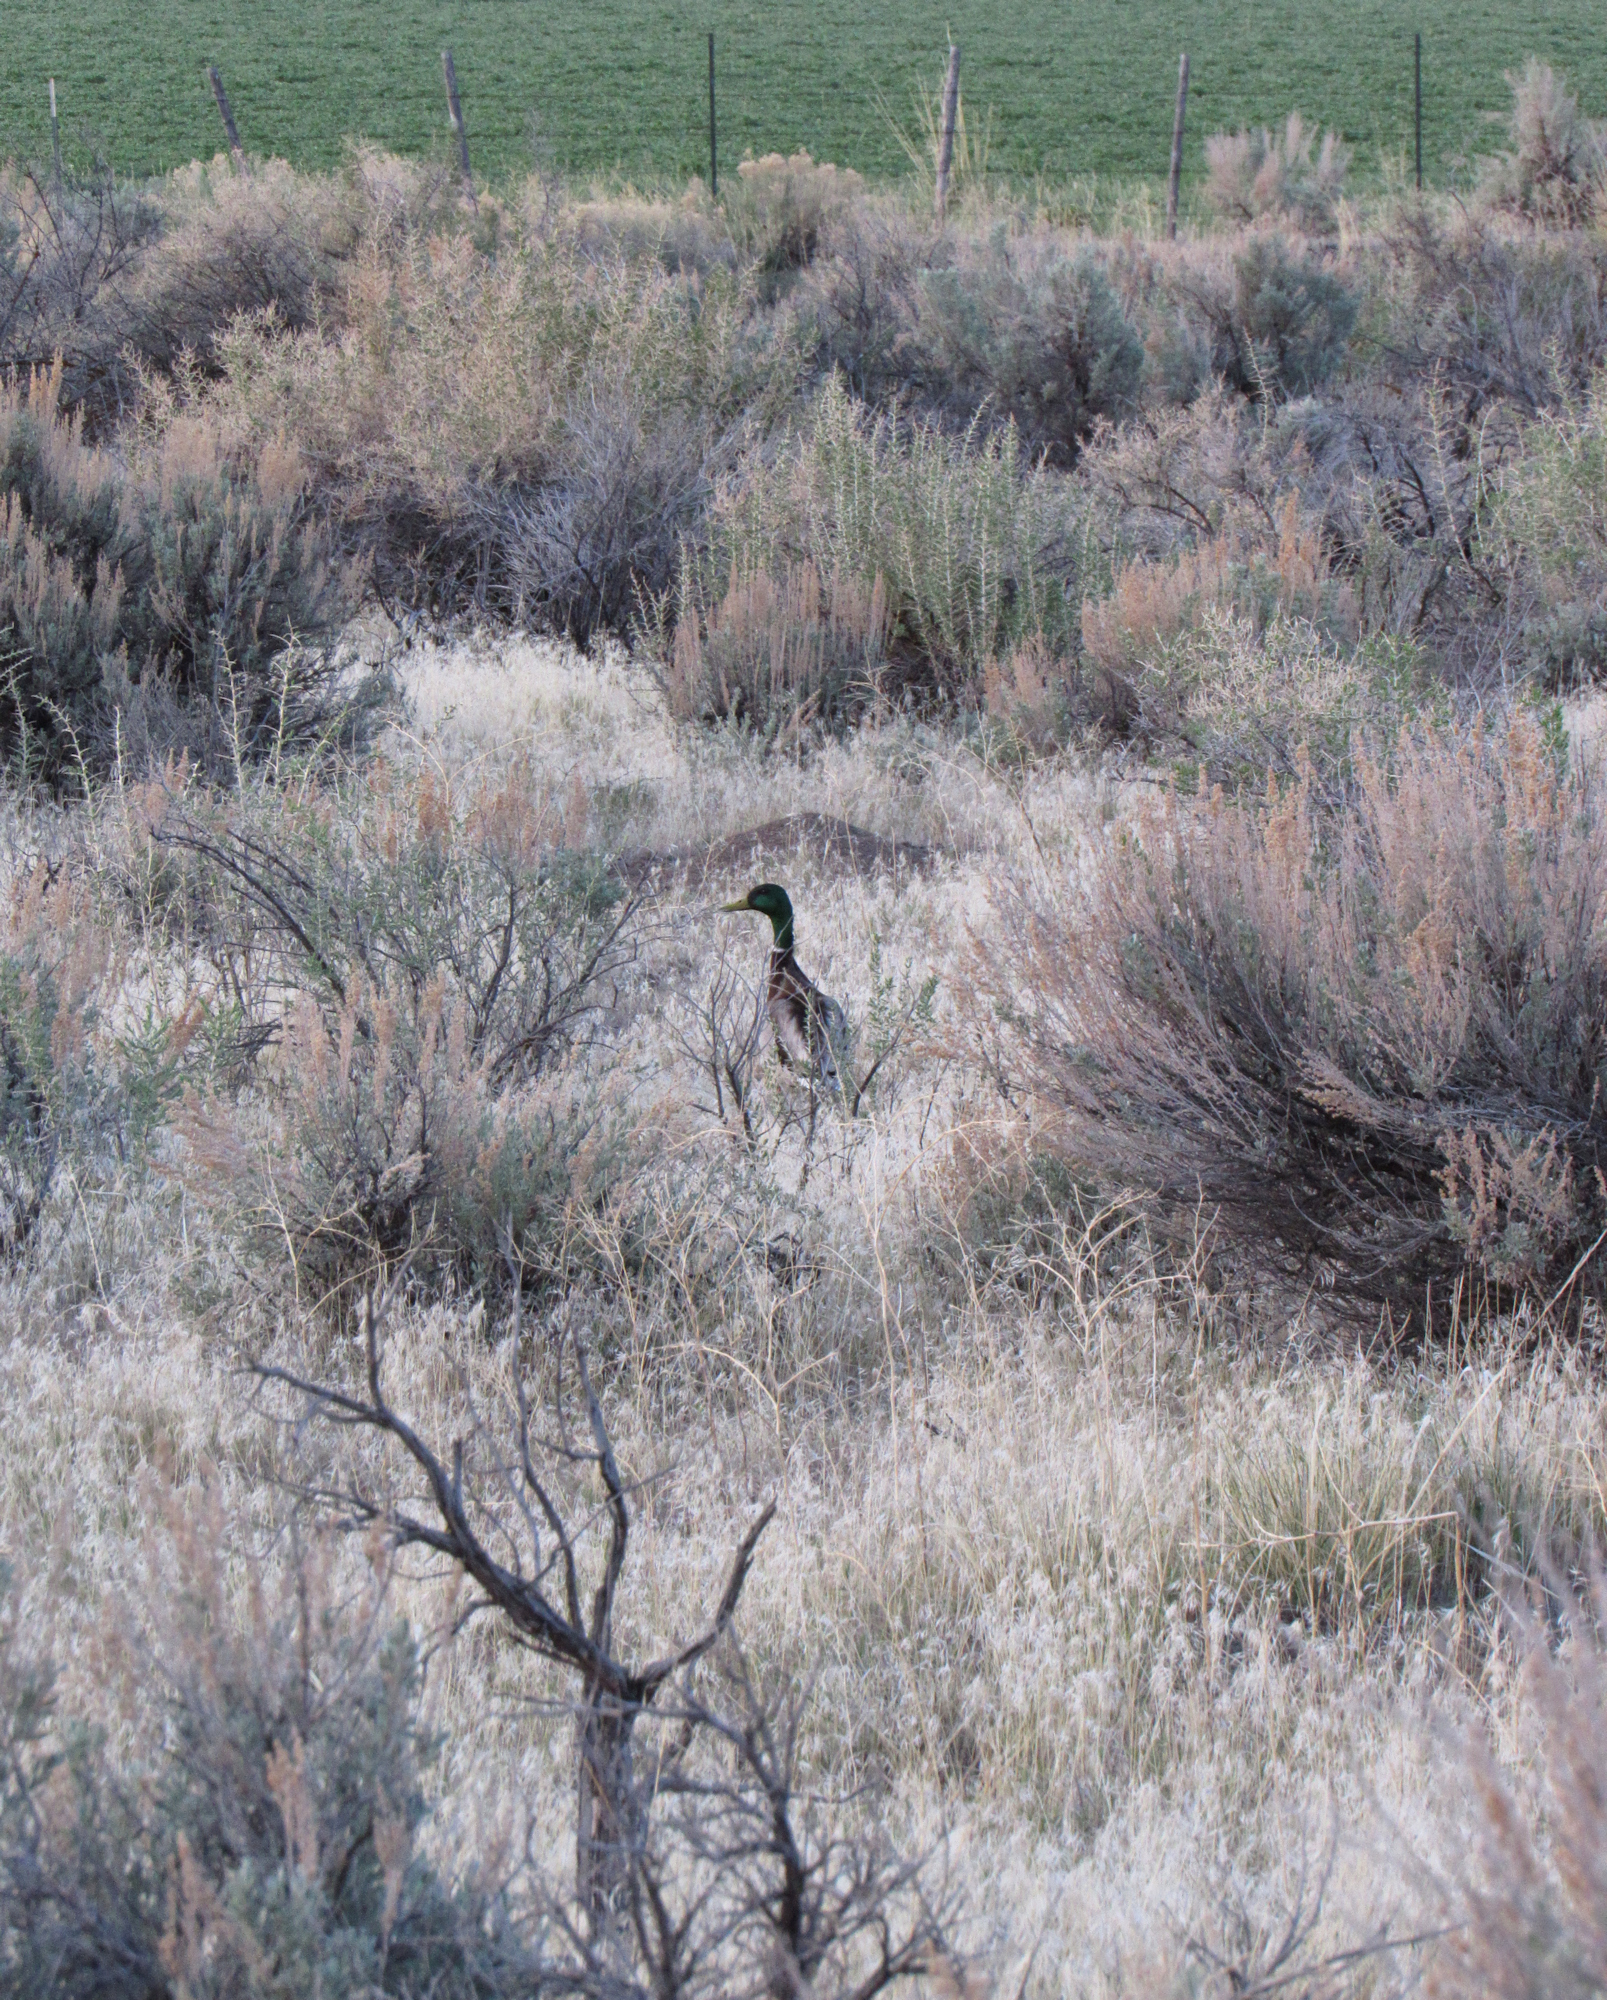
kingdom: Animalia
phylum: Chordata
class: Aves
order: Anseriformes
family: Anatidae
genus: Anas
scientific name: Anas platyrhynchos
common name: Mallard
